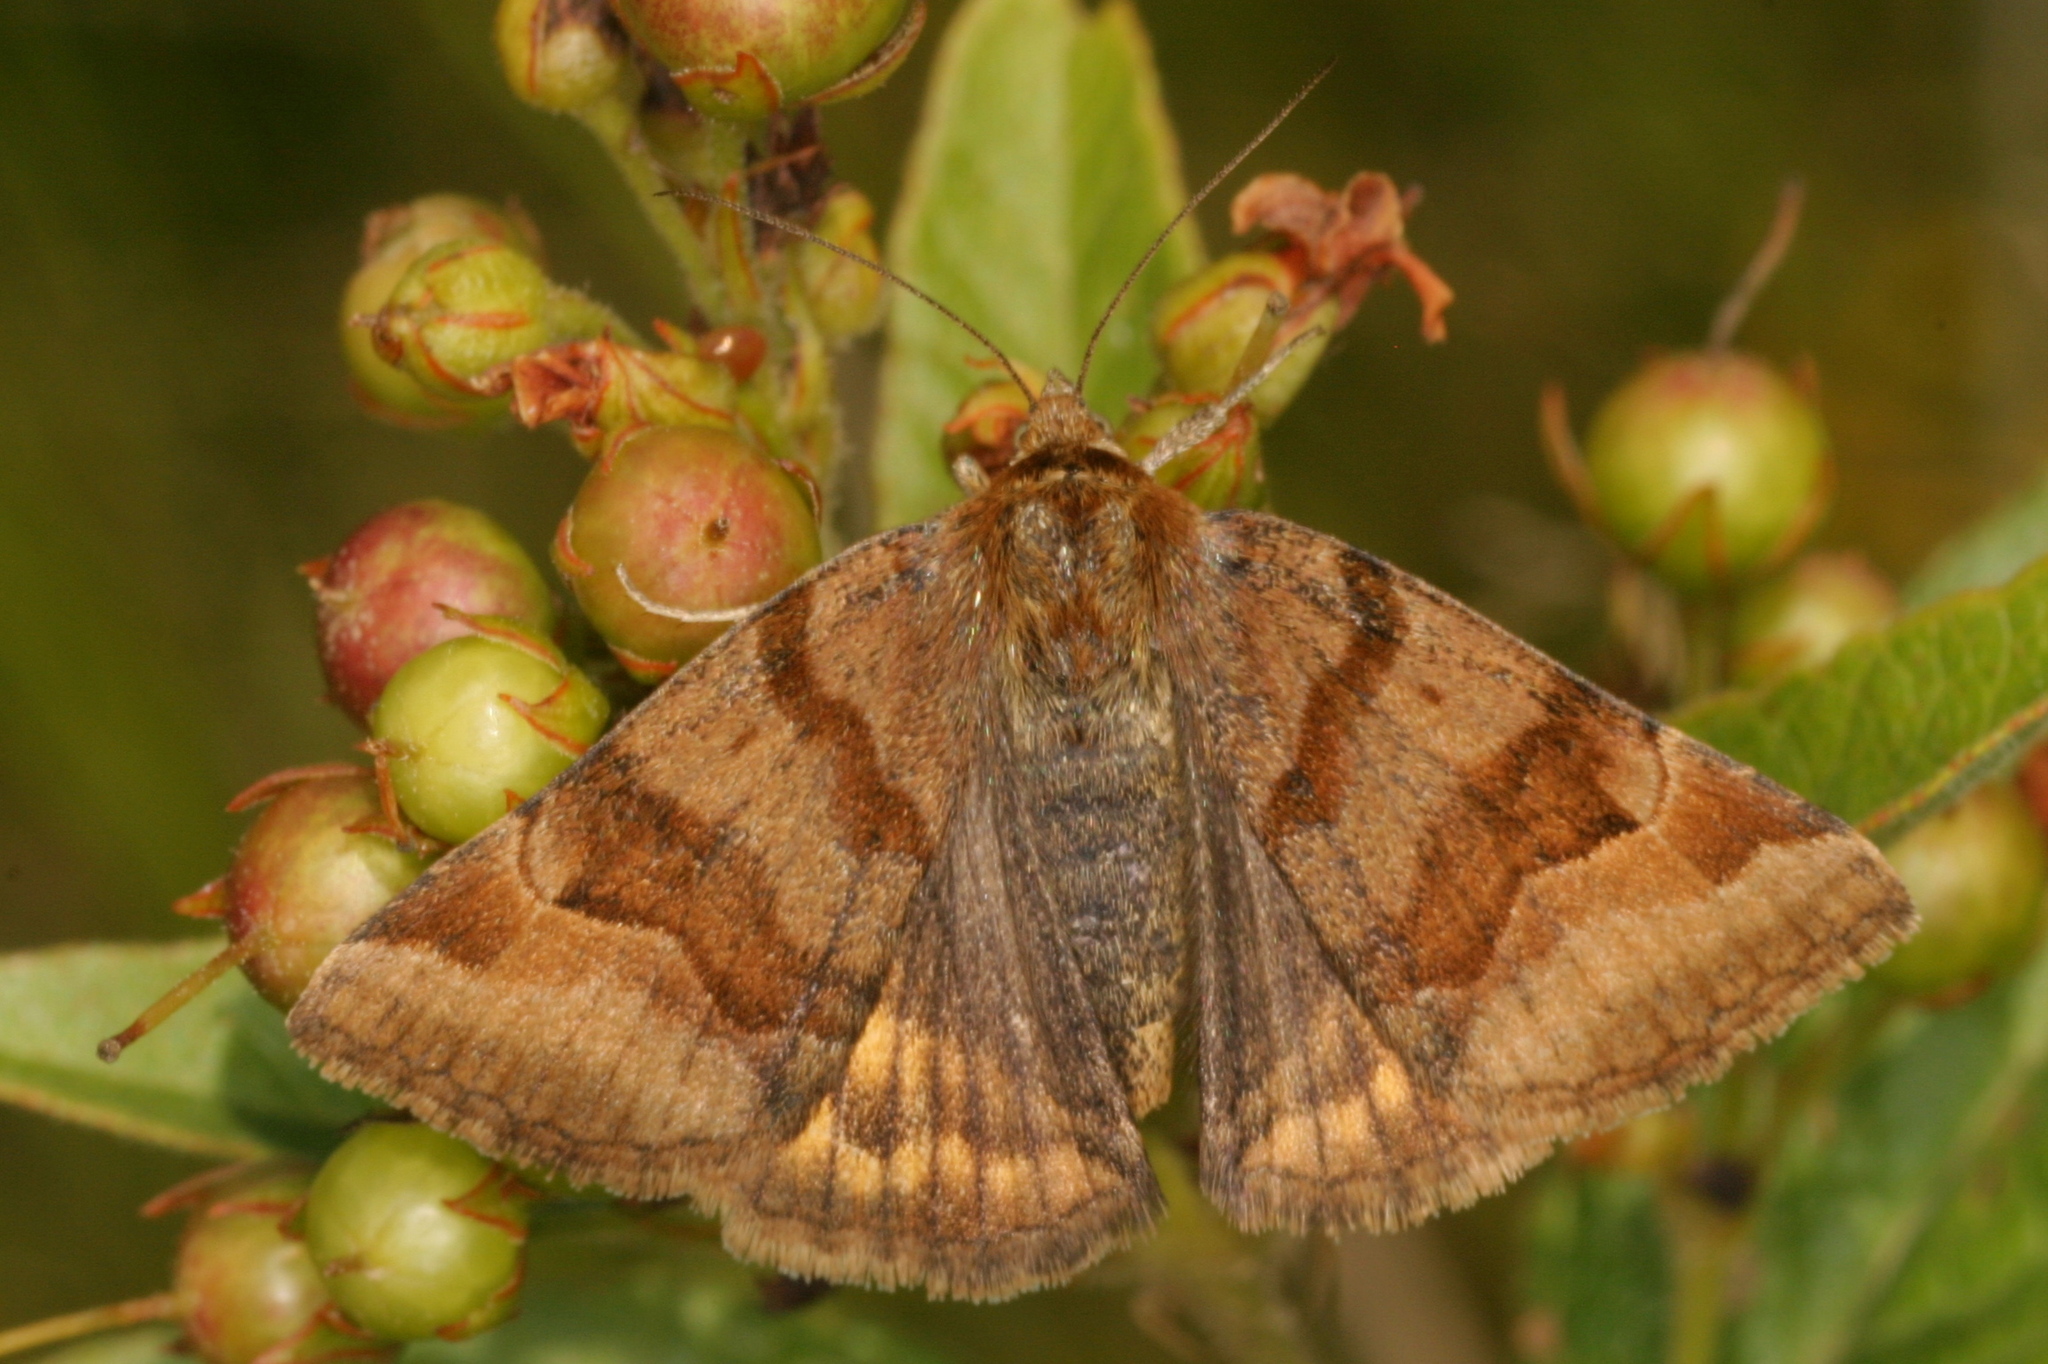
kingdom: Animalia
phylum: Arthropoda
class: Insecta
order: Lepidoptera
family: Erebidae
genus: Euclidia
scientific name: Euclidia glyphica
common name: Burnet companion
